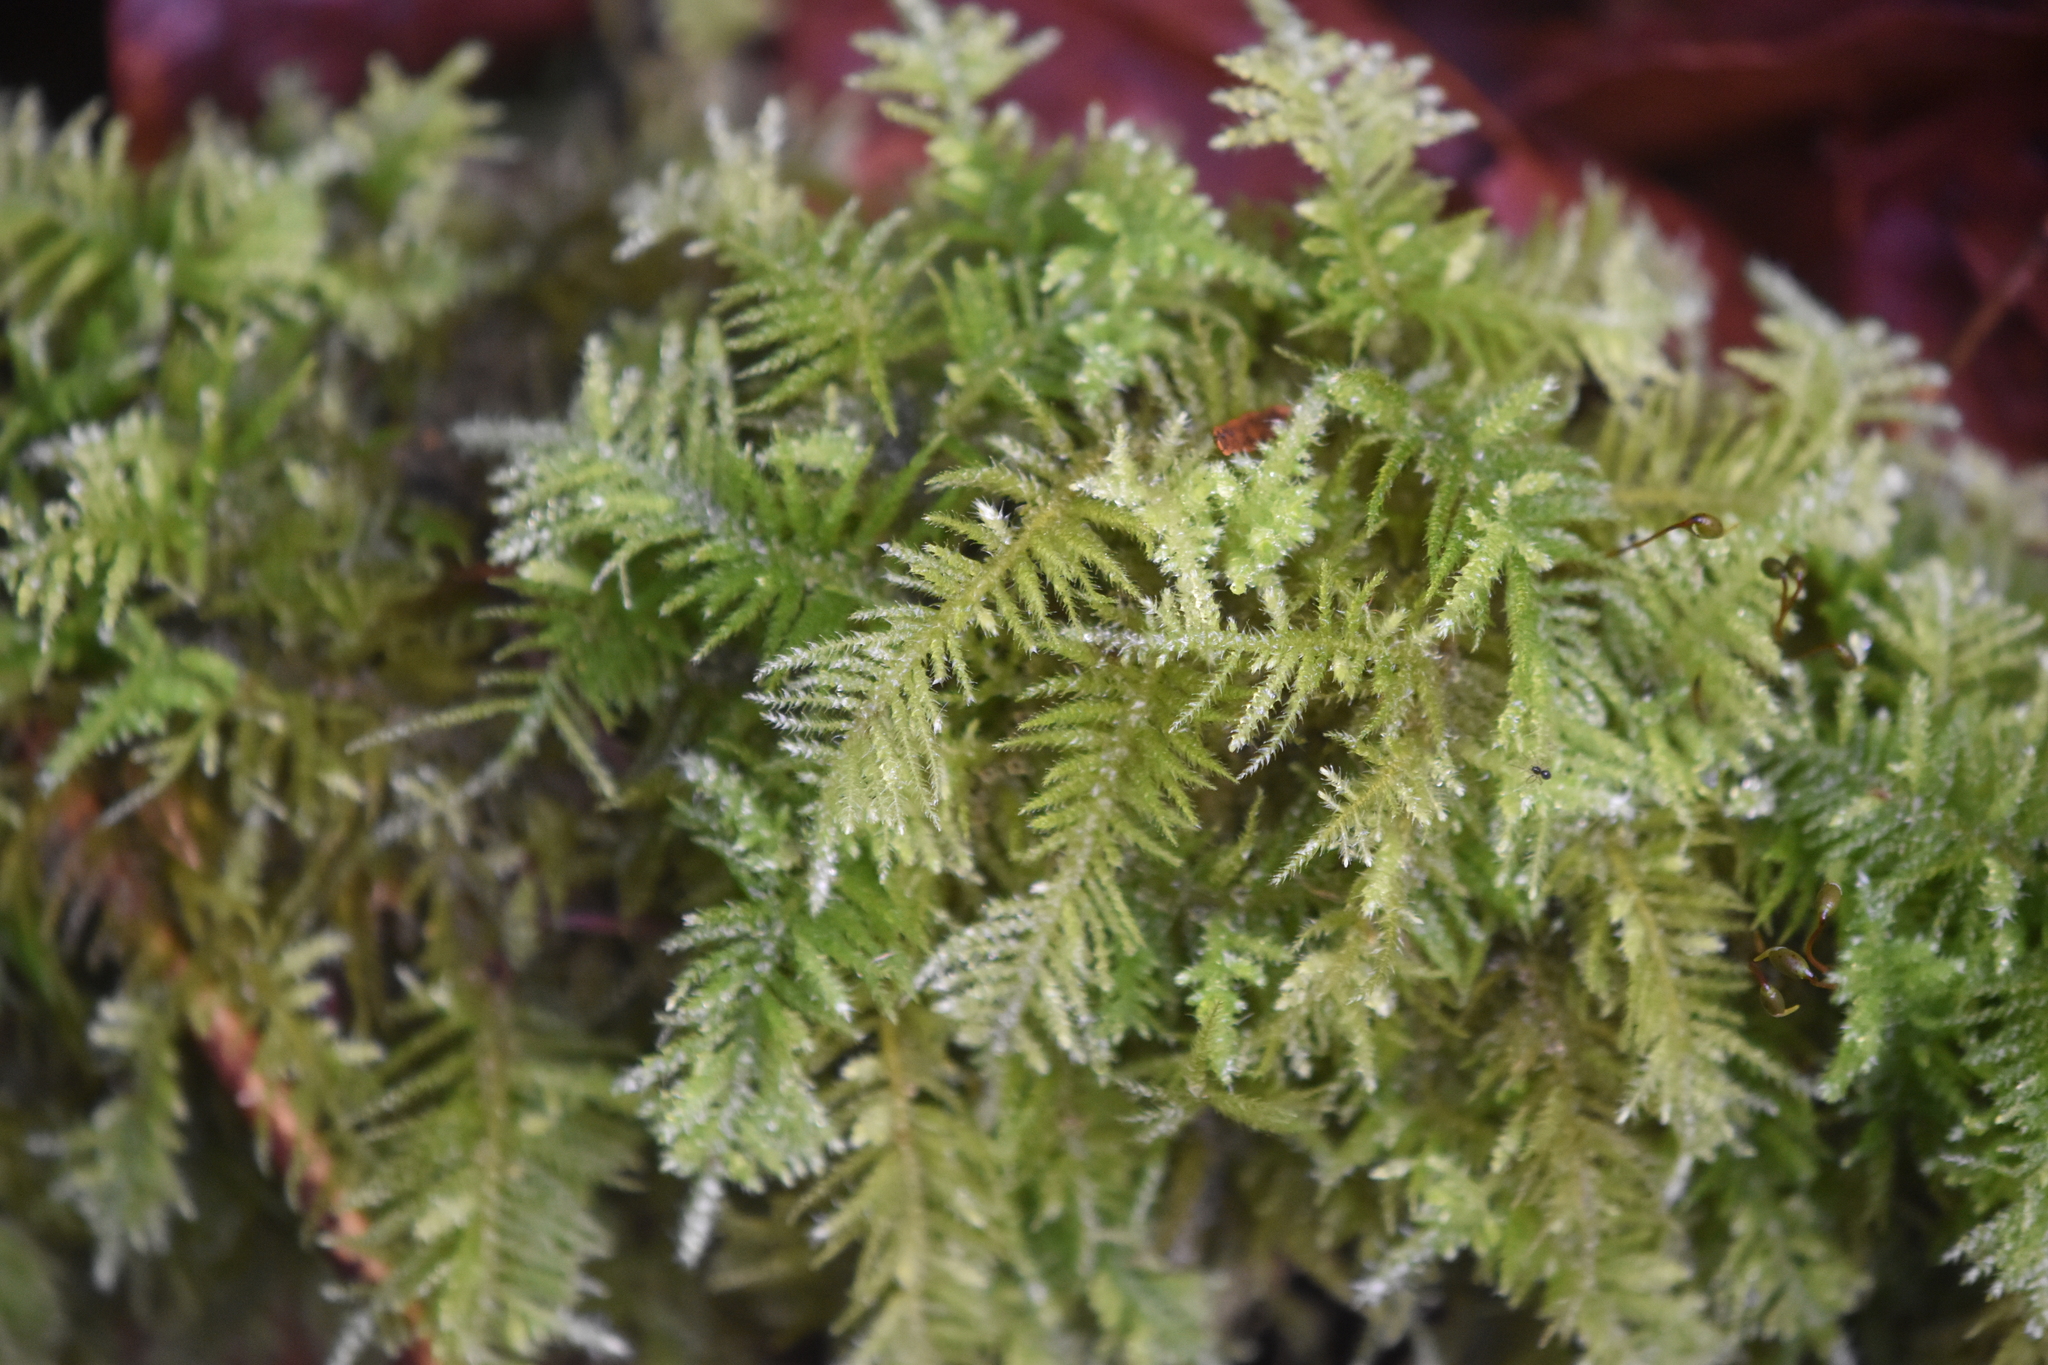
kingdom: Plantae
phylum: Bryophyta
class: Bryopsida
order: Hypnales
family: Brachytheciaceae
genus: Kindbergia
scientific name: Kindbergia oregana
